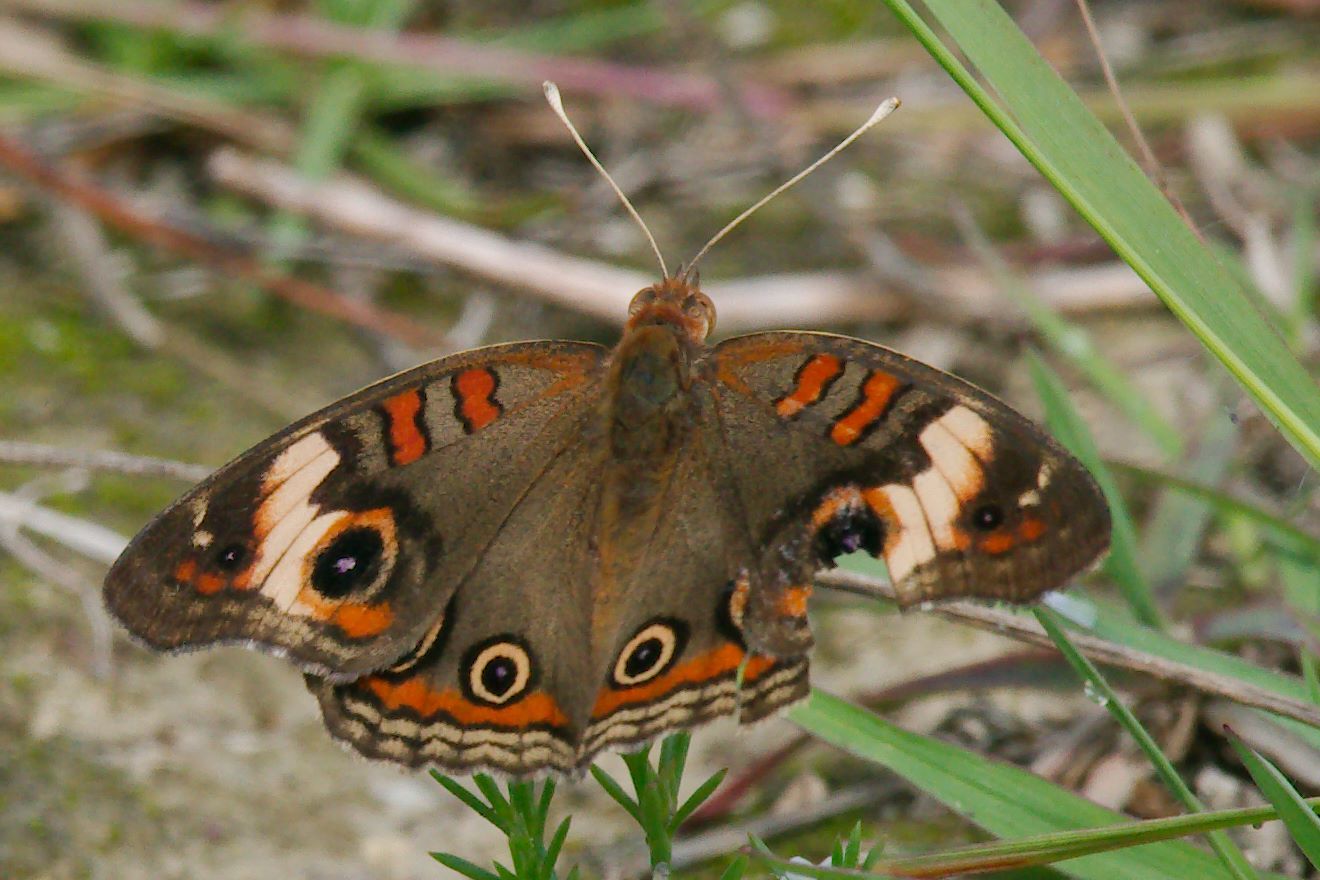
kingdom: Animalia
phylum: Arthropoda
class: Insecta
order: Lepidoptera
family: Nymphalidae
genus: Junonia
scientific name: Junonia lavinia
